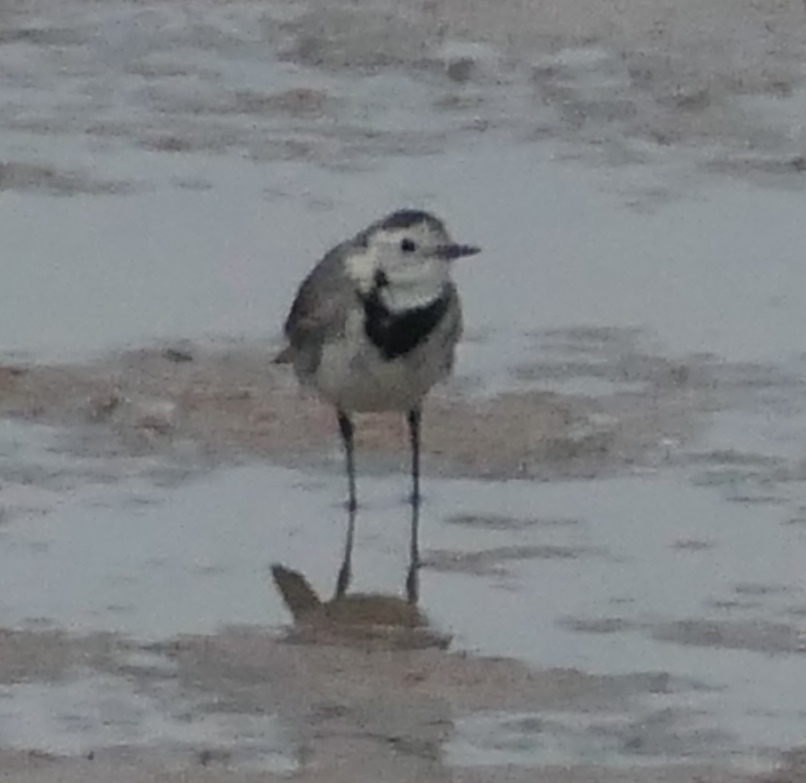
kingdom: Animalia
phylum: Chordata
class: Aves
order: Passeriformes
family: Motacillidae
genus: Motacilla
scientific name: Motacilla alba
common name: White wagtail
